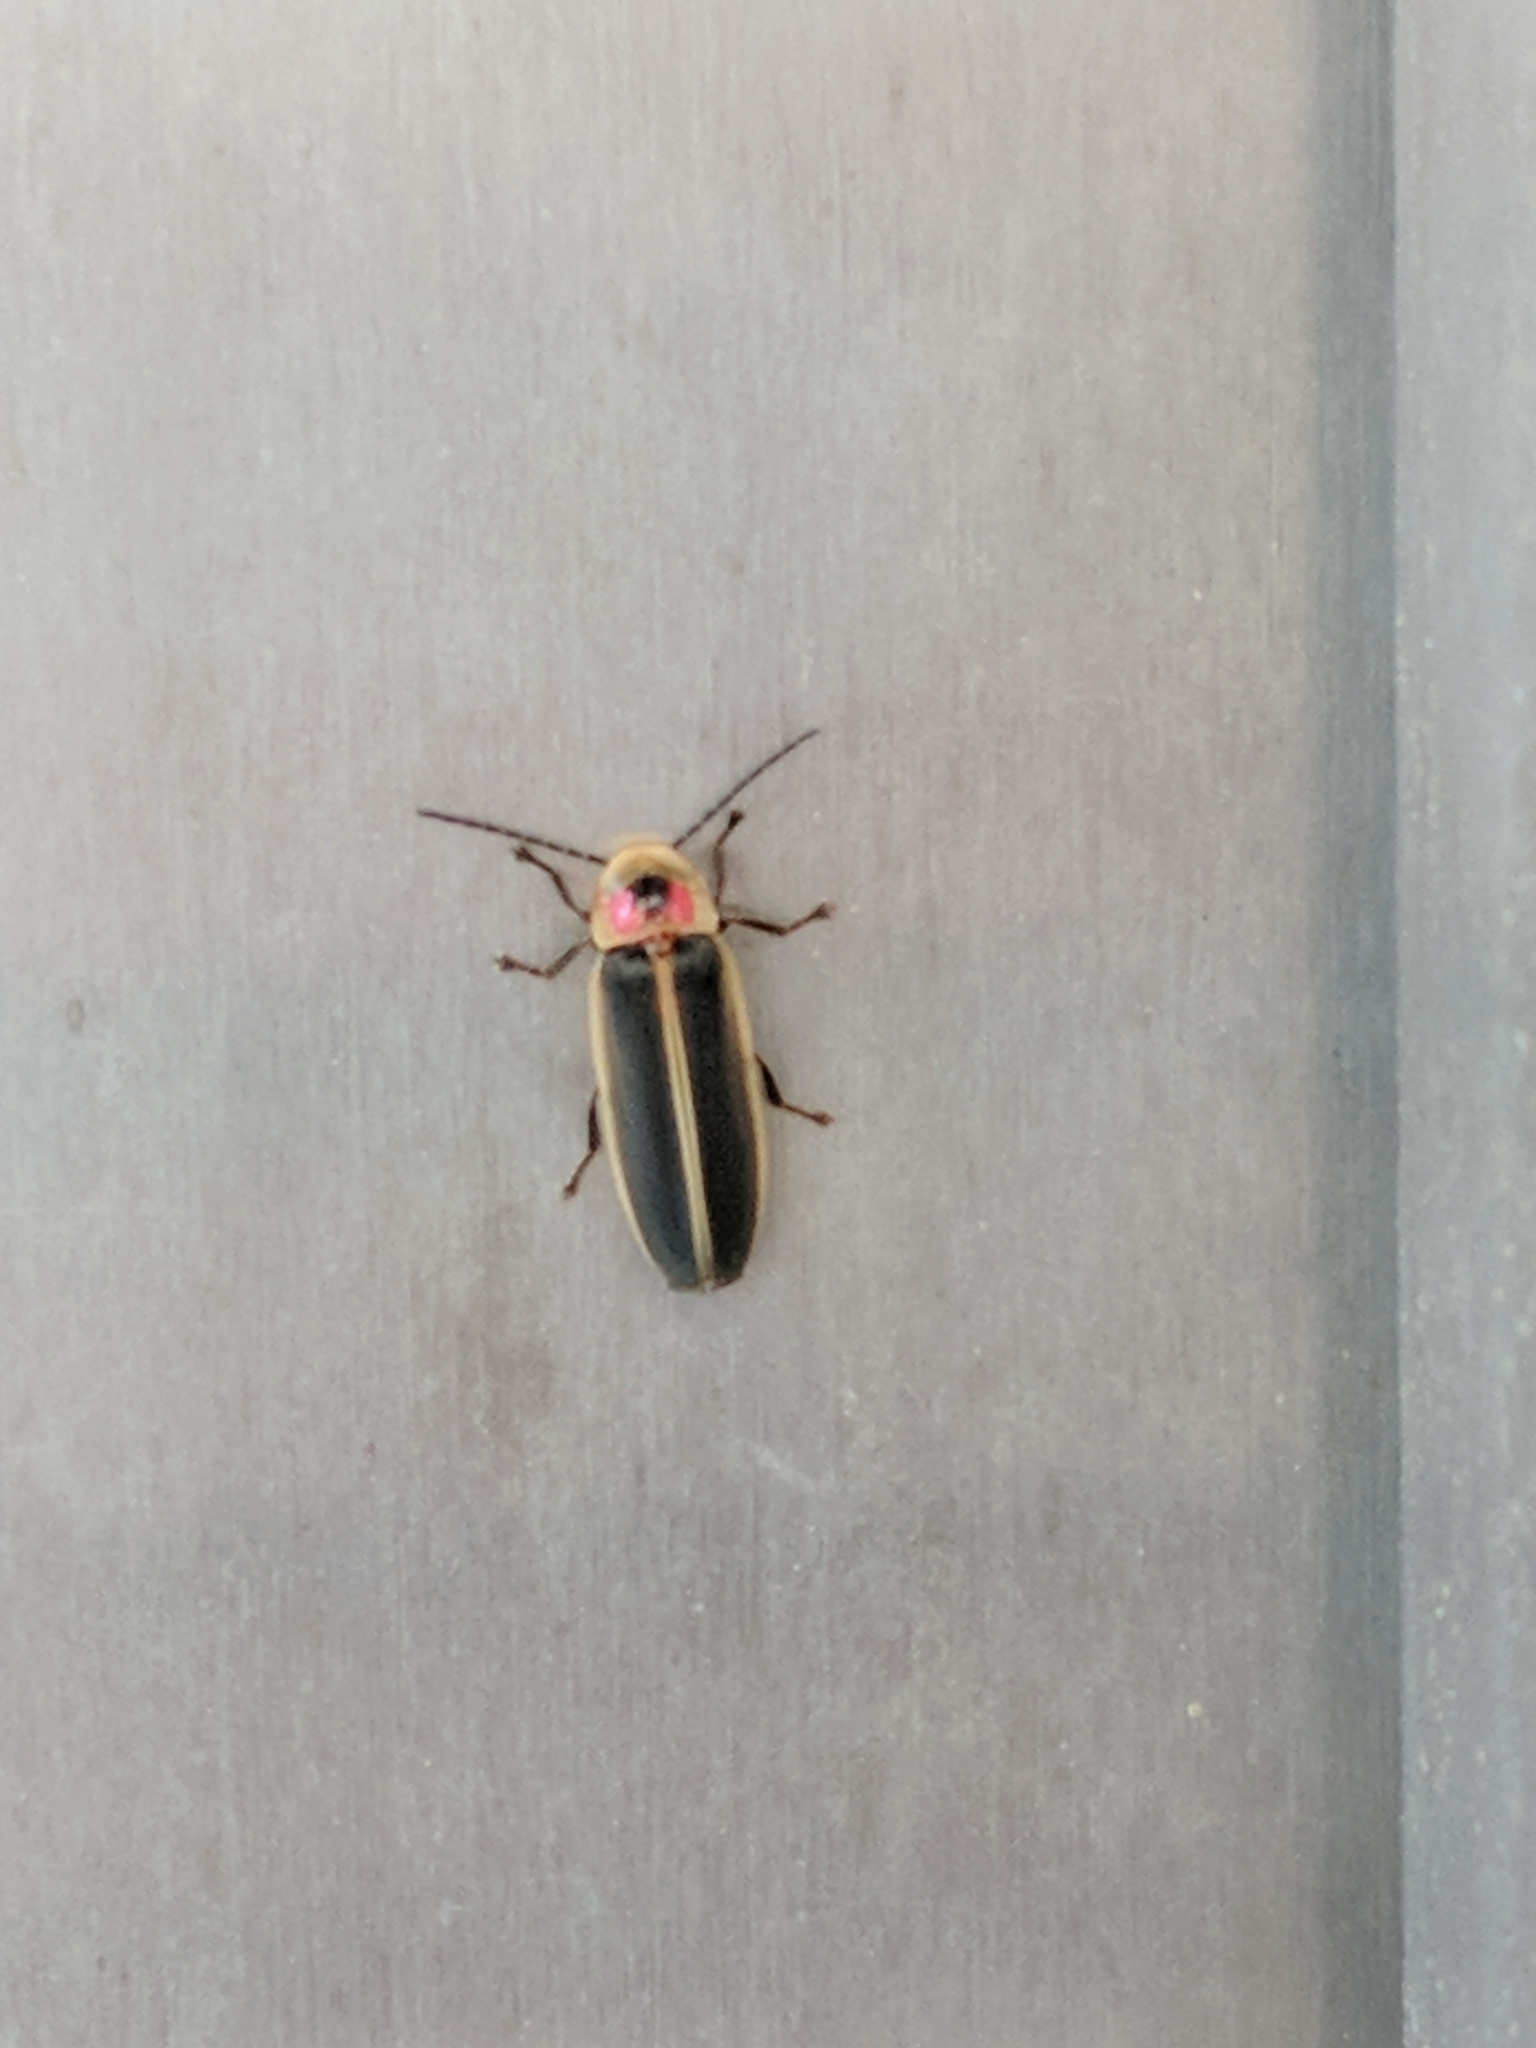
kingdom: Animalia
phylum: Arthropoda
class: Insecta
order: Coleoptera
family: Lampyridae
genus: Photinus
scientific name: Photinus pyralis
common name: Big dipper firefly
